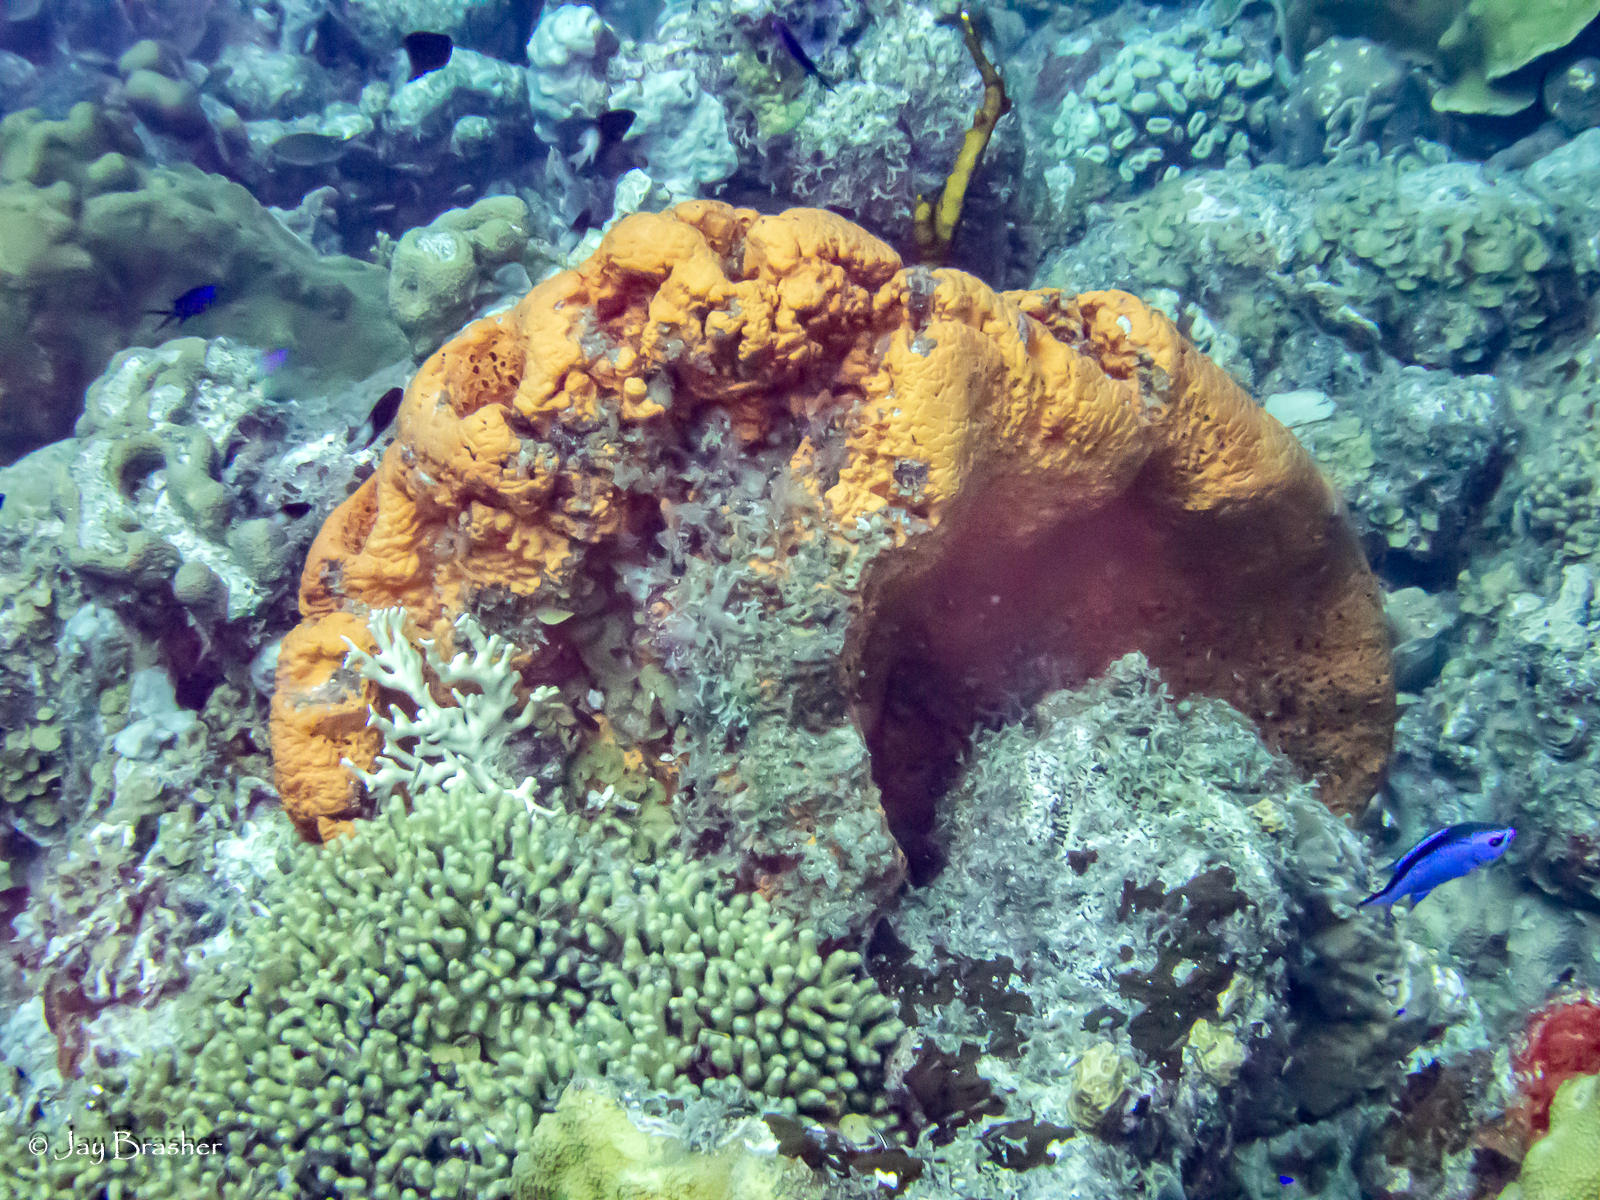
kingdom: Animalia
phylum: Chordata
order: Perciformes
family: Pomacentridae
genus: Chromis
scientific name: Chromis cyanea
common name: Blue chromis
